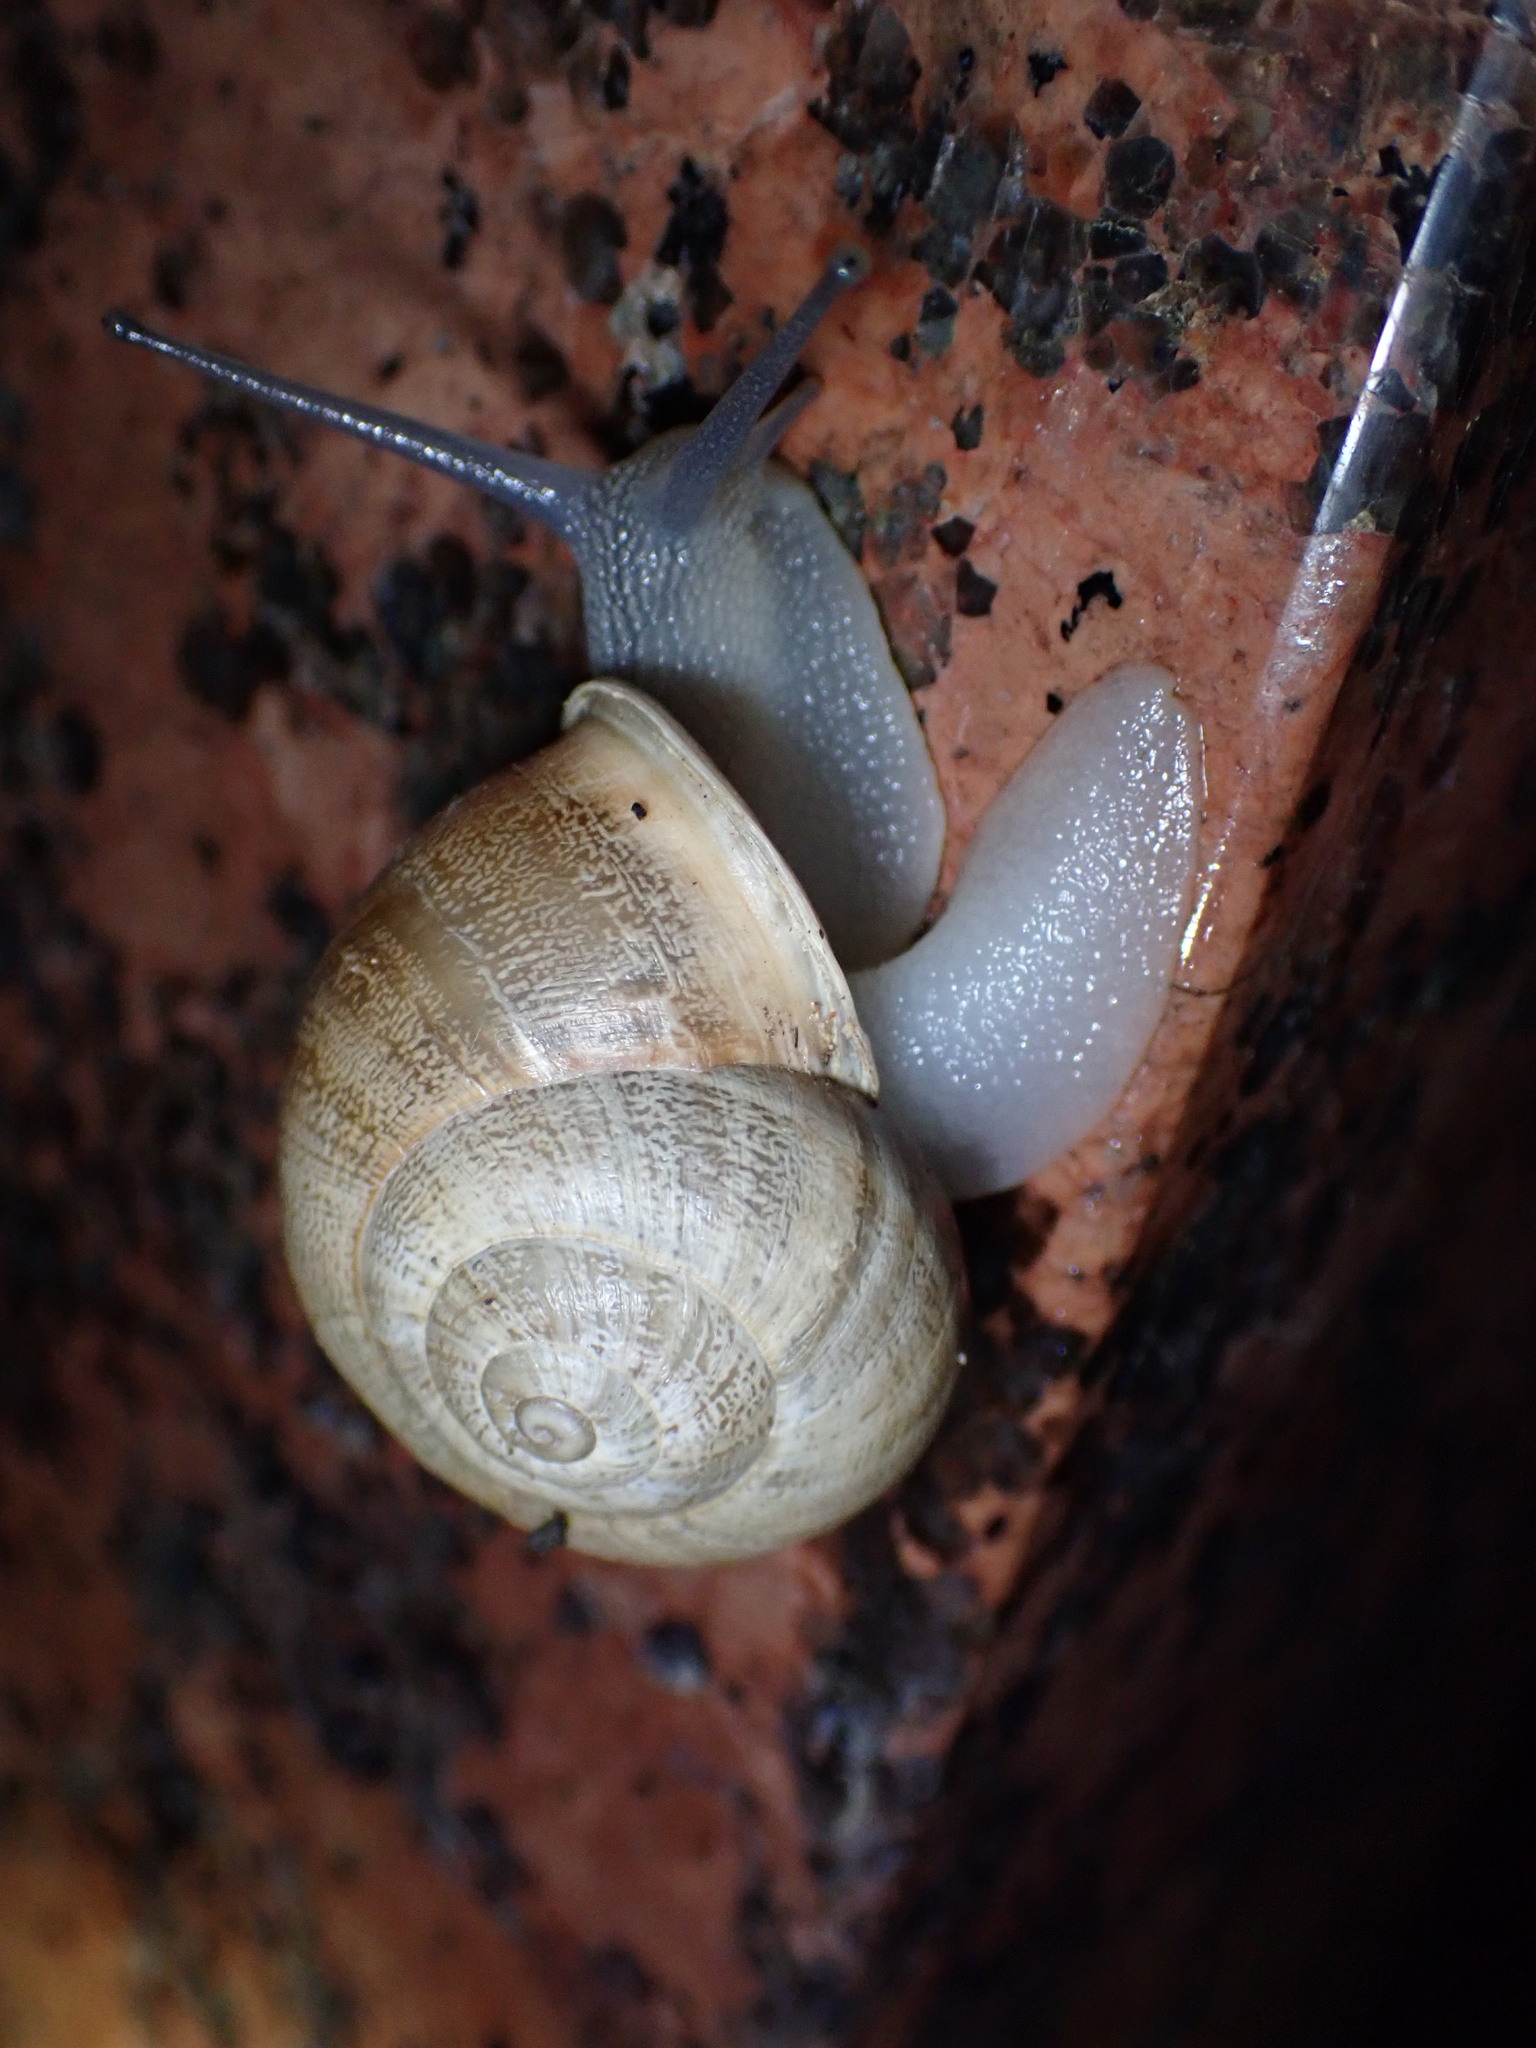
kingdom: Animalia
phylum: Mollusca
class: Gastropoda
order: Stylommatophora
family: Helicidae
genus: Eobania
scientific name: Eobania vermiculata
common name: Chocolateband snail
